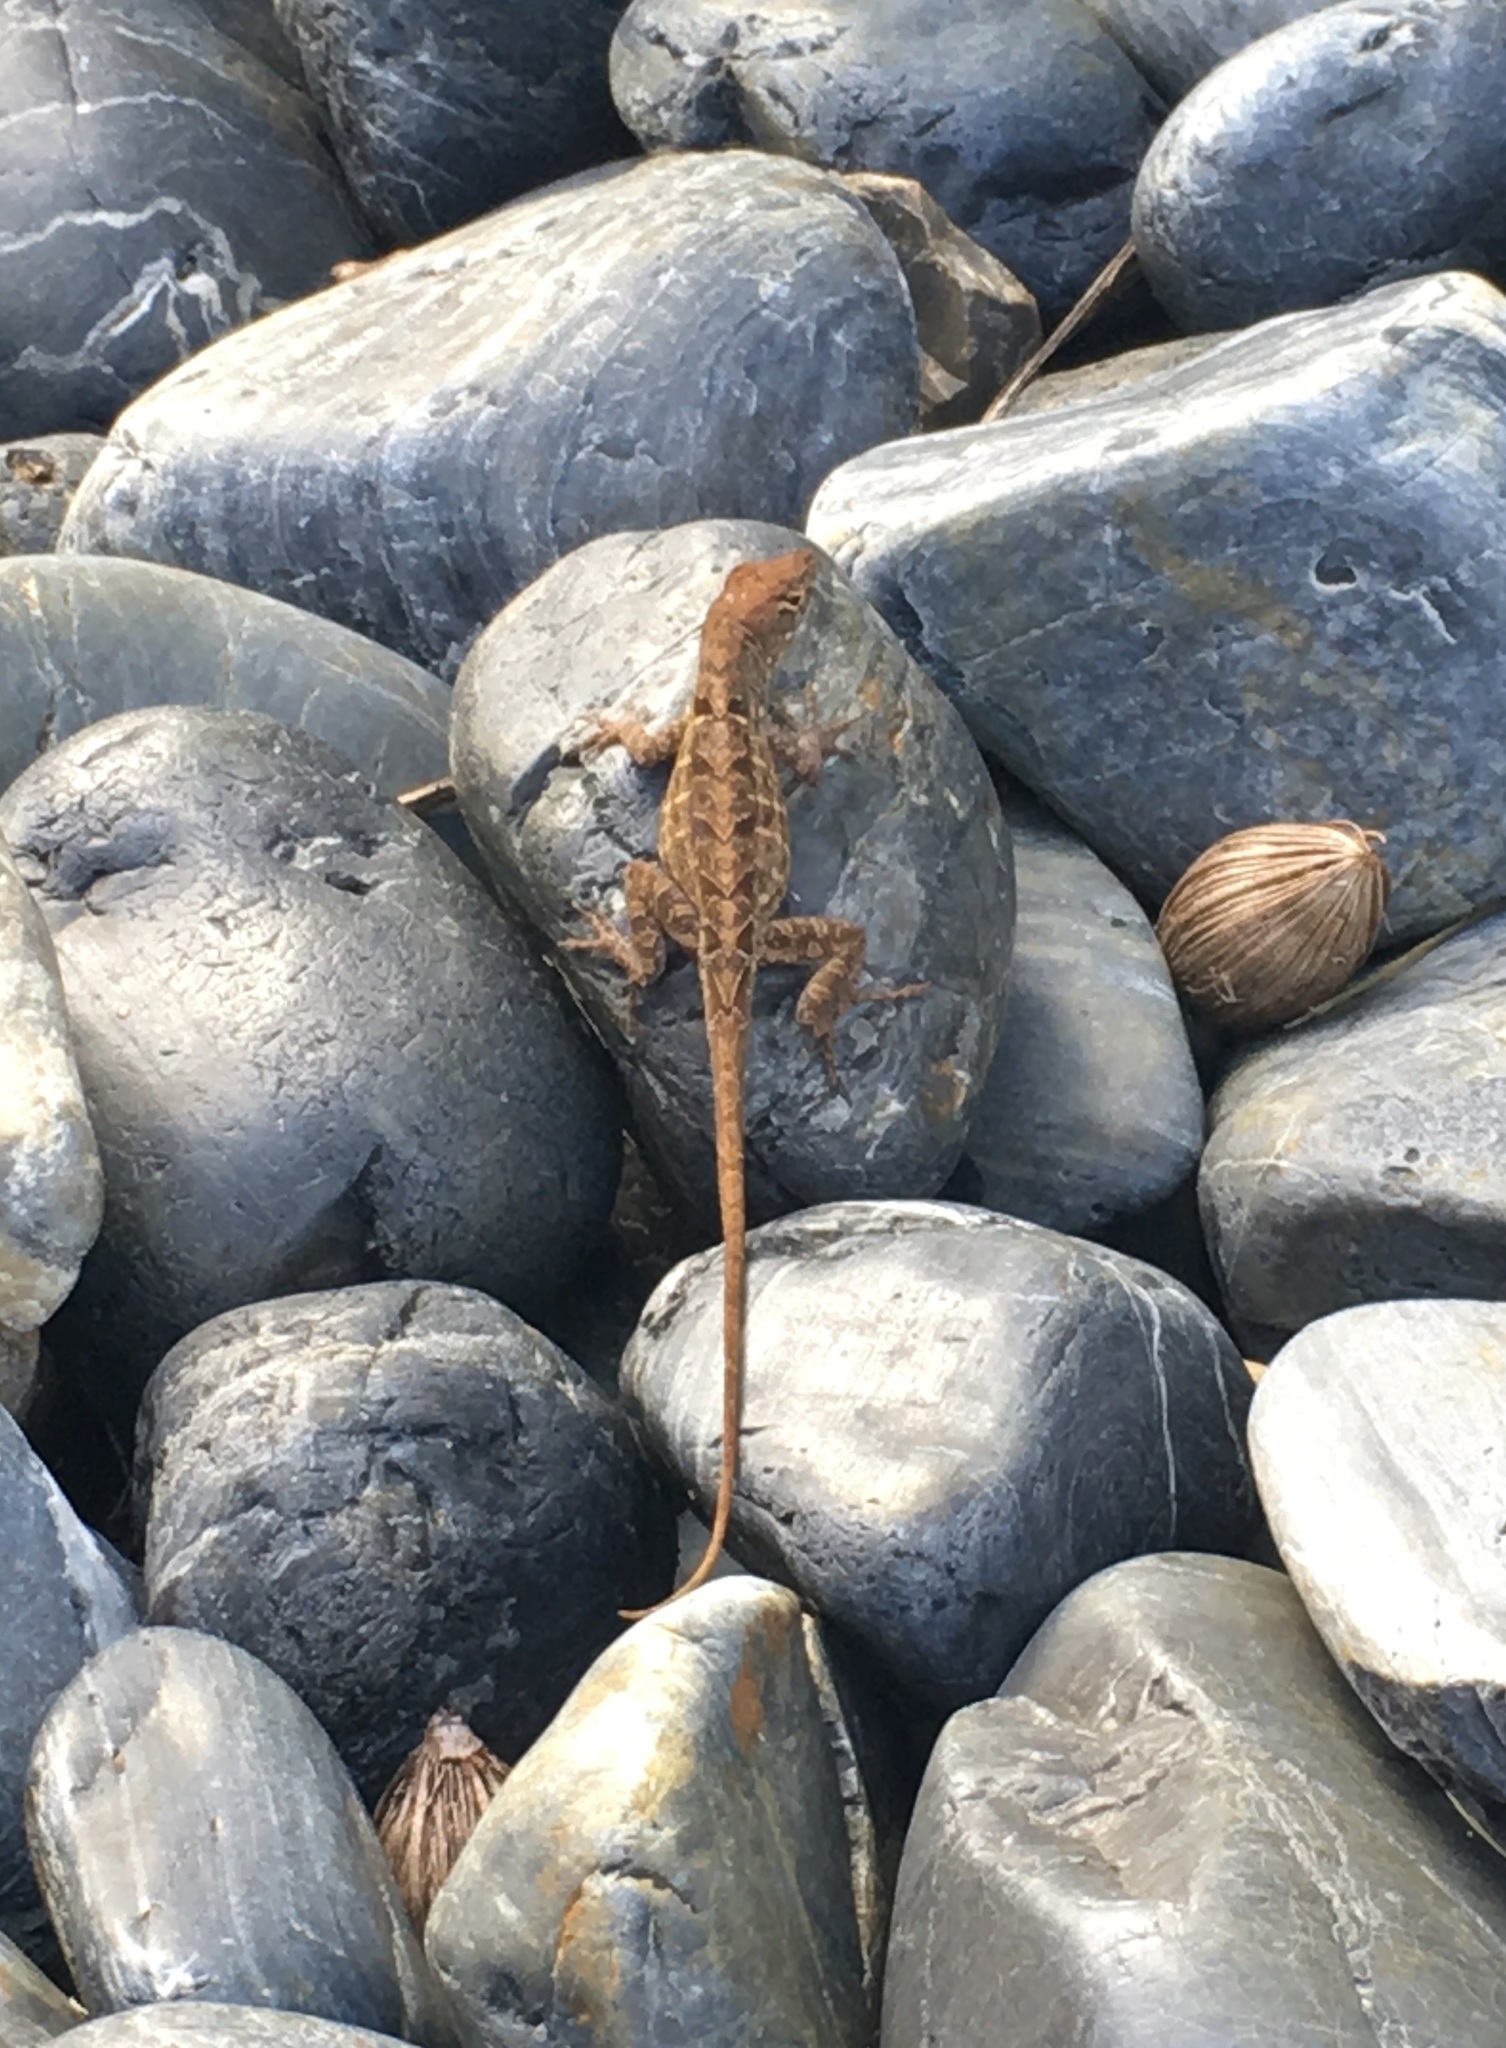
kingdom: Animalia
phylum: Chordata
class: Squamata
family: Dactyloidae
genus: Anolis
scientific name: Anolis sagrei
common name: Brown anole
